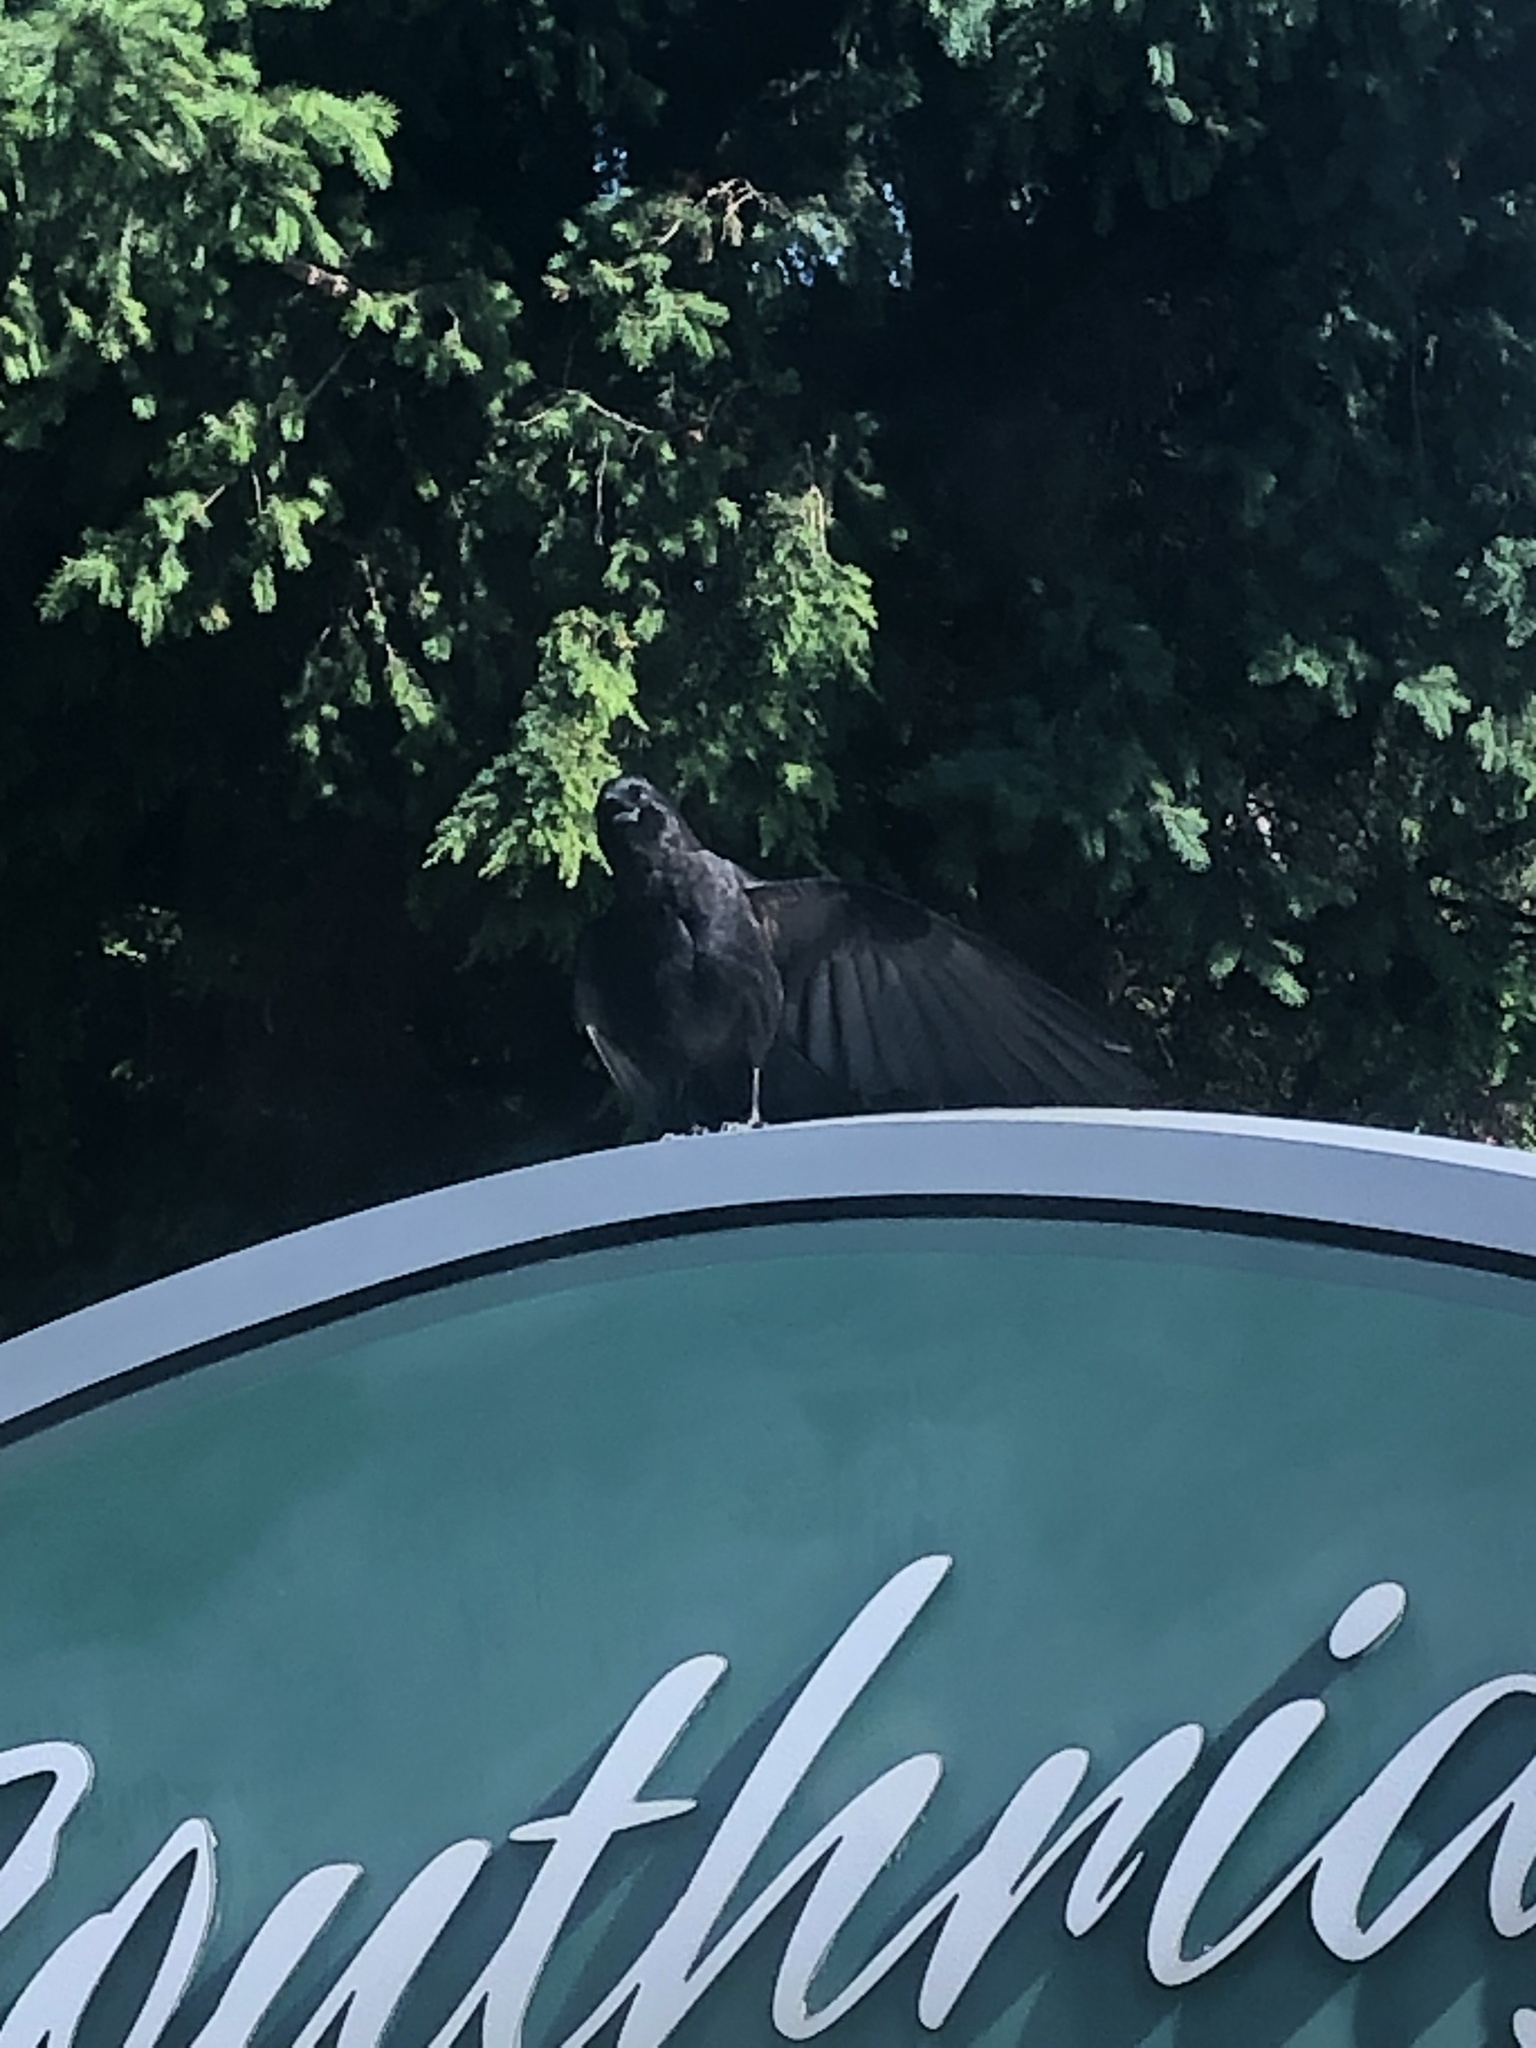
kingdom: Animalia
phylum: Chordata
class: Aves
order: Passeriformes
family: Corvidae
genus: Corvus
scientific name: Corvus brachyrhynchos
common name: American crow
